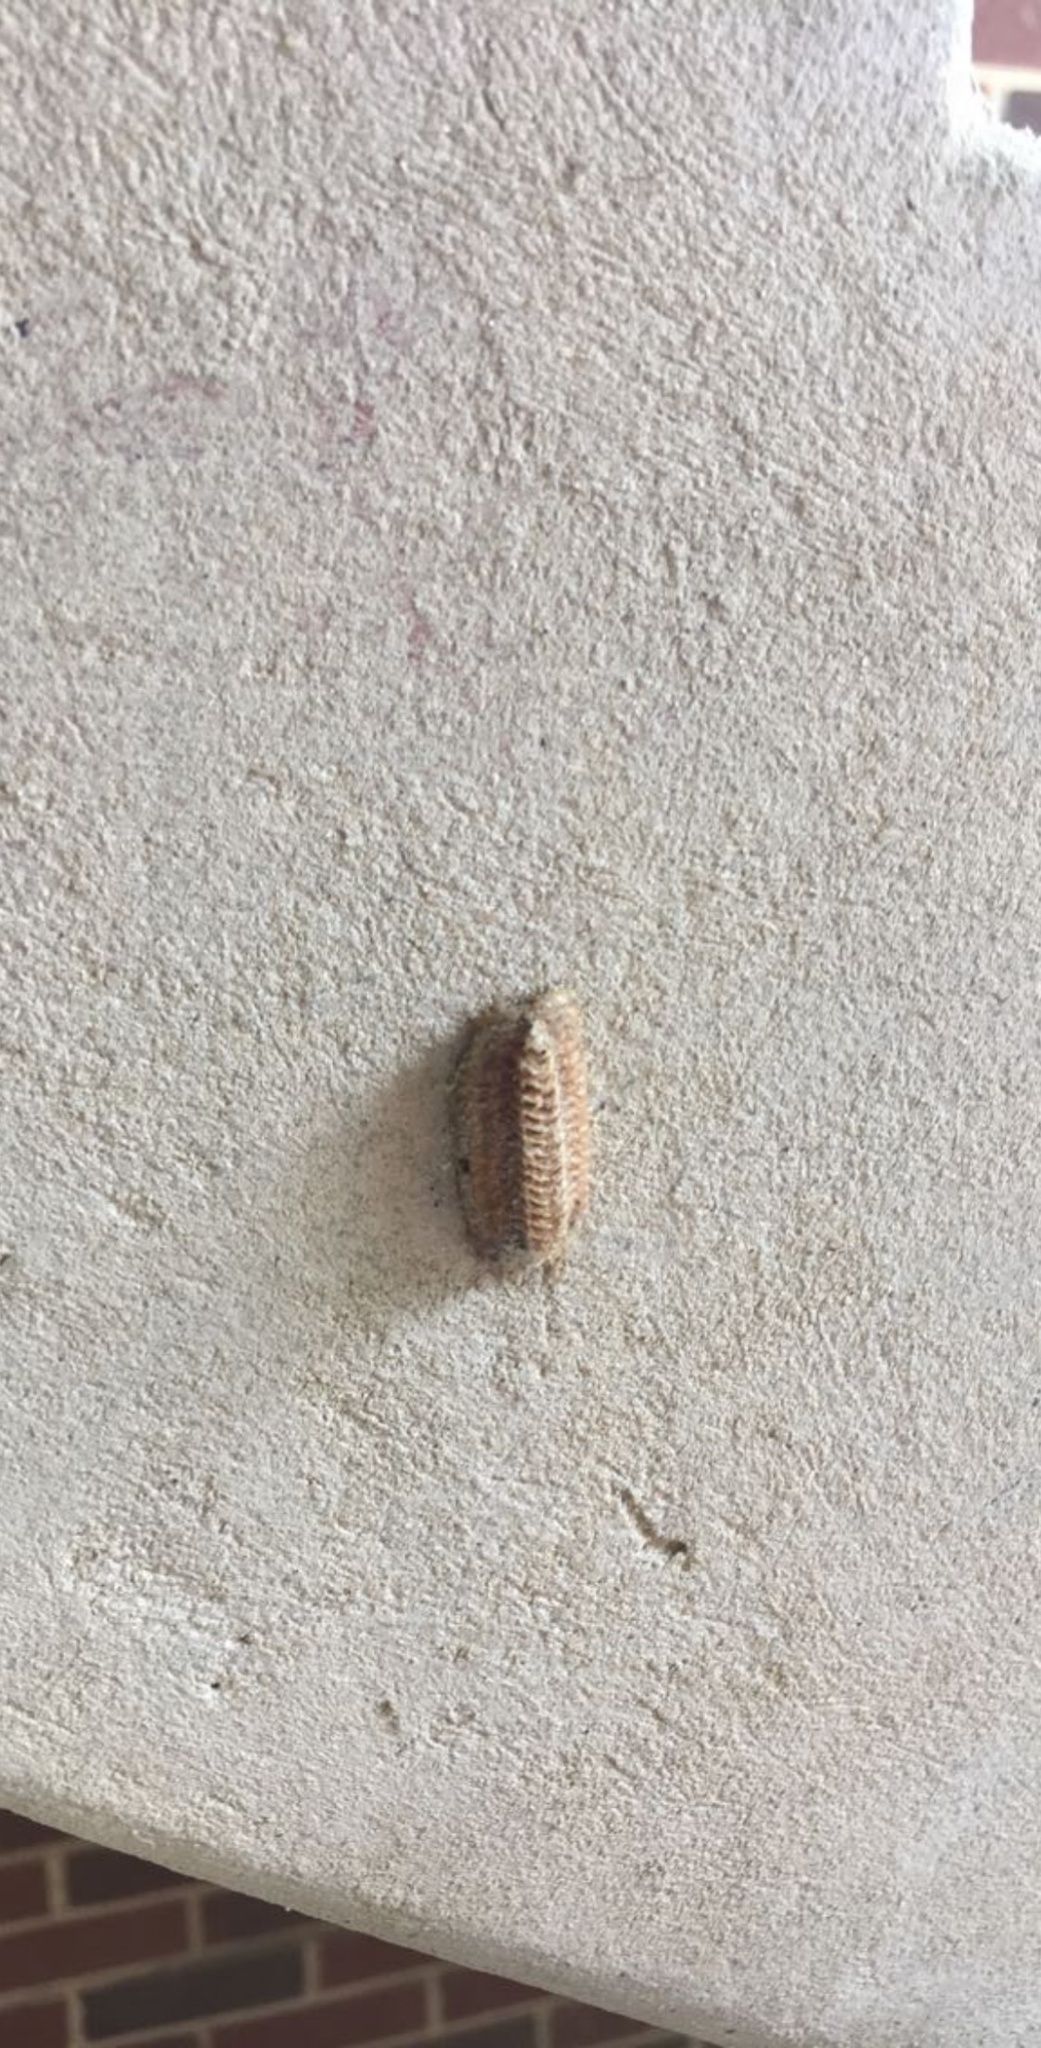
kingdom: Animalia
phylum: Arthropoda
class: Insecta
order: Mantodea
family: Mantidae
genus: Stagmomantis
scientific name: Stagmomantis carolina
